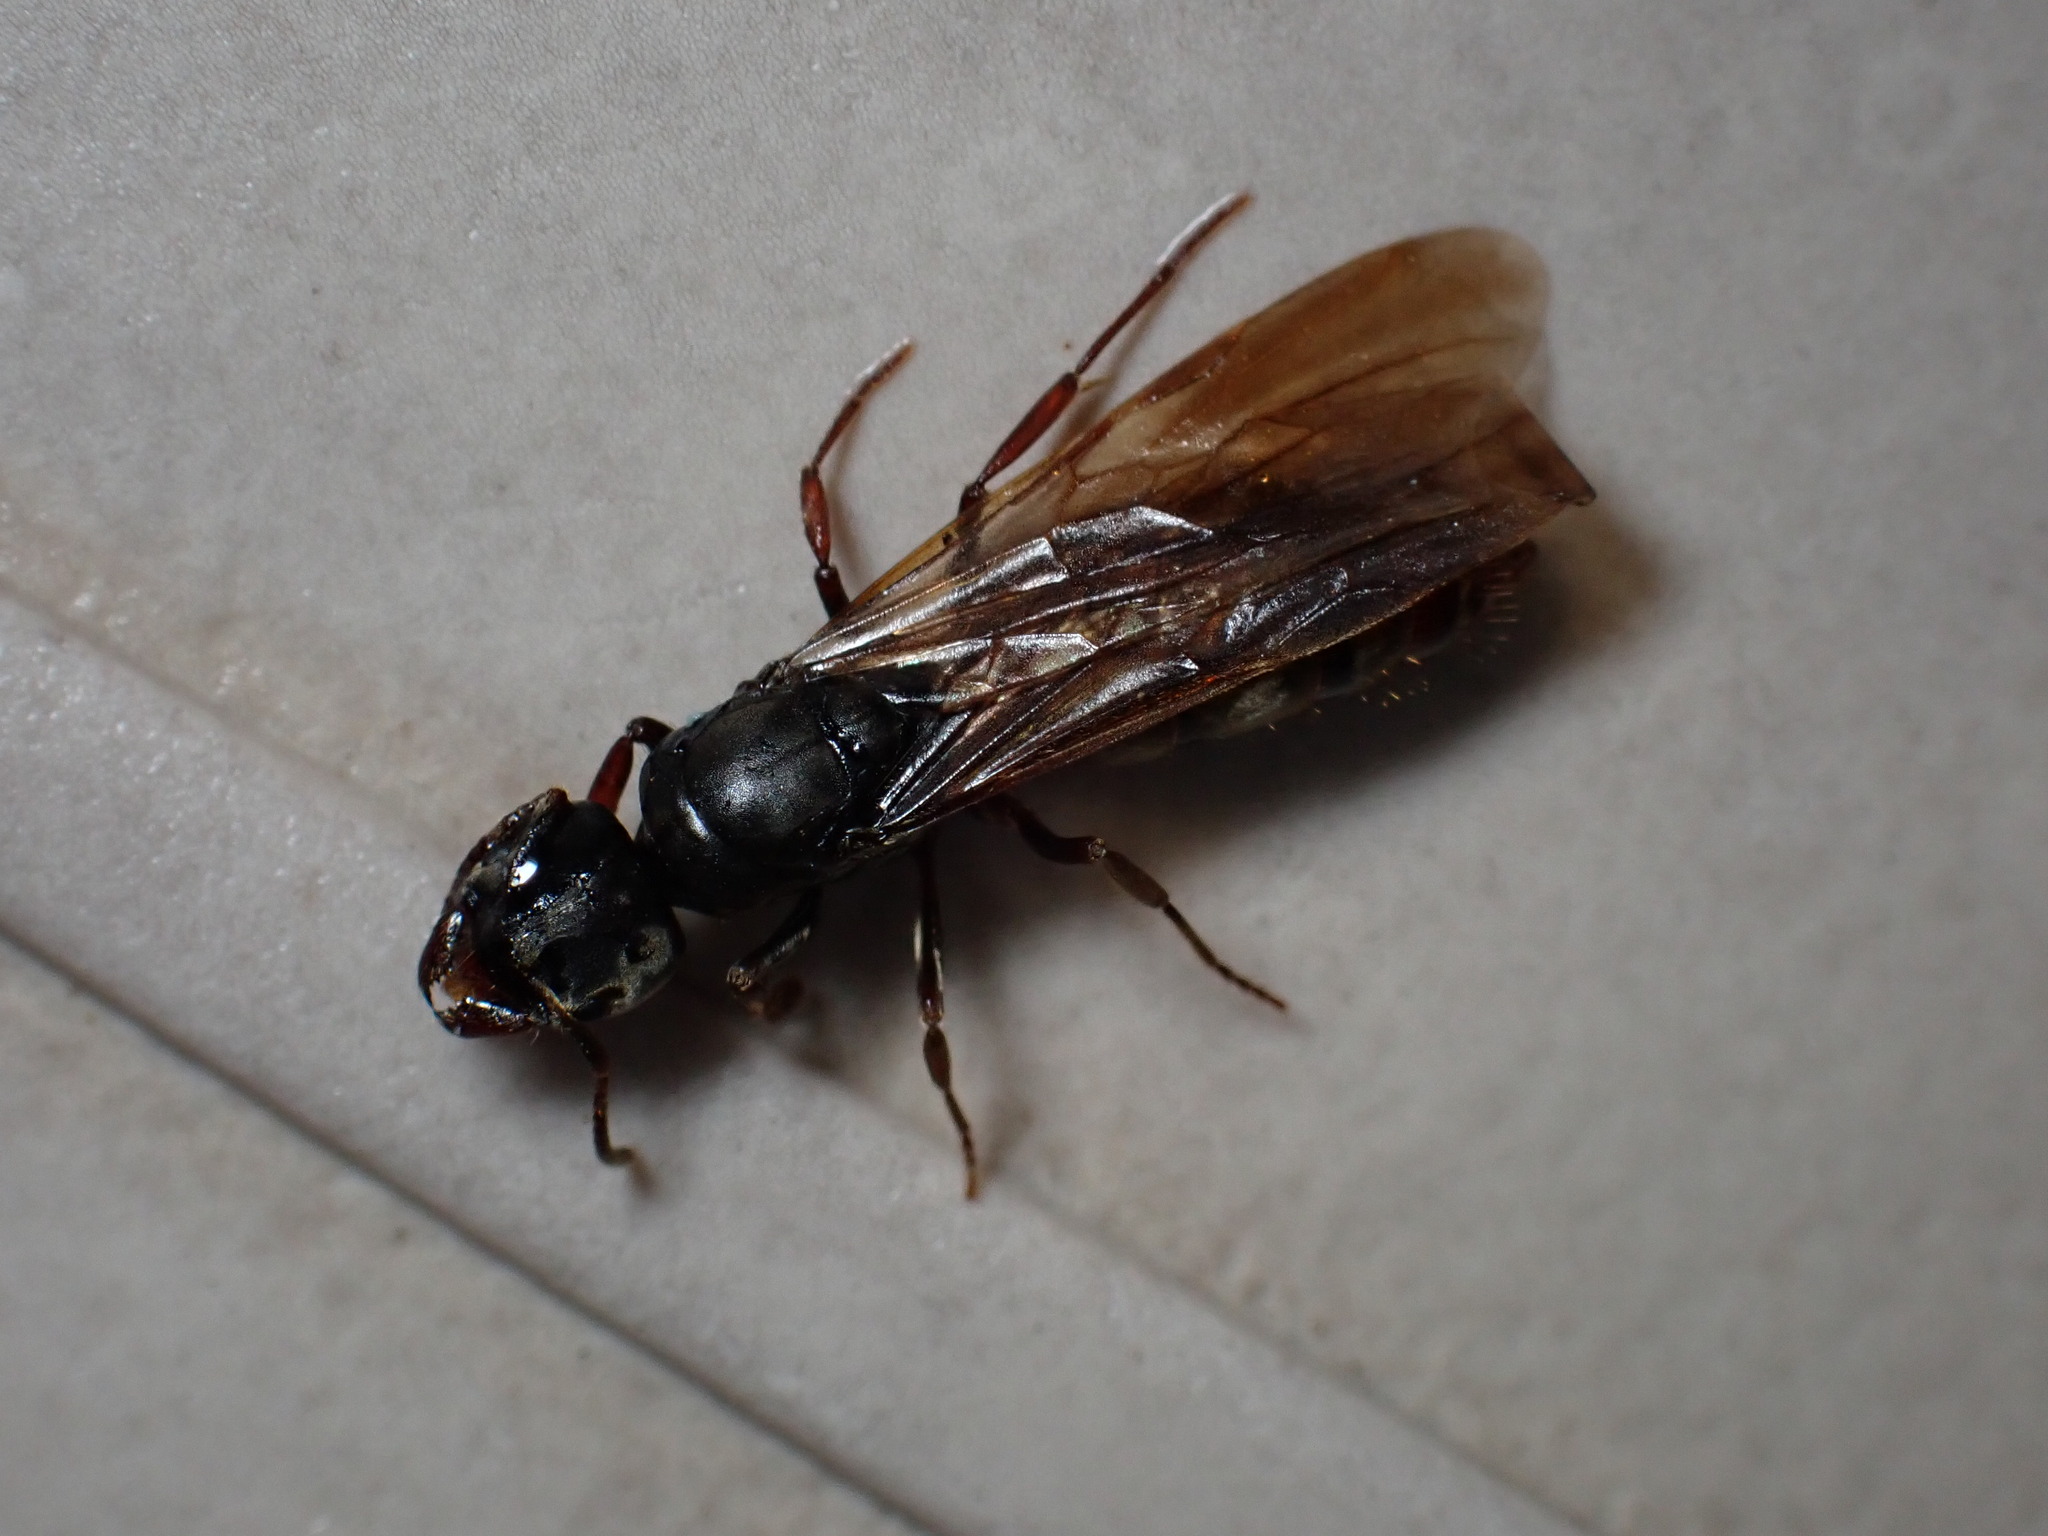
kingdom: Animalia
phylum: Arthropoda
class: Insecta
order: Hymenoptera
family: Formicidae
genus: Brachyponera
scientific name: Brachyponera
